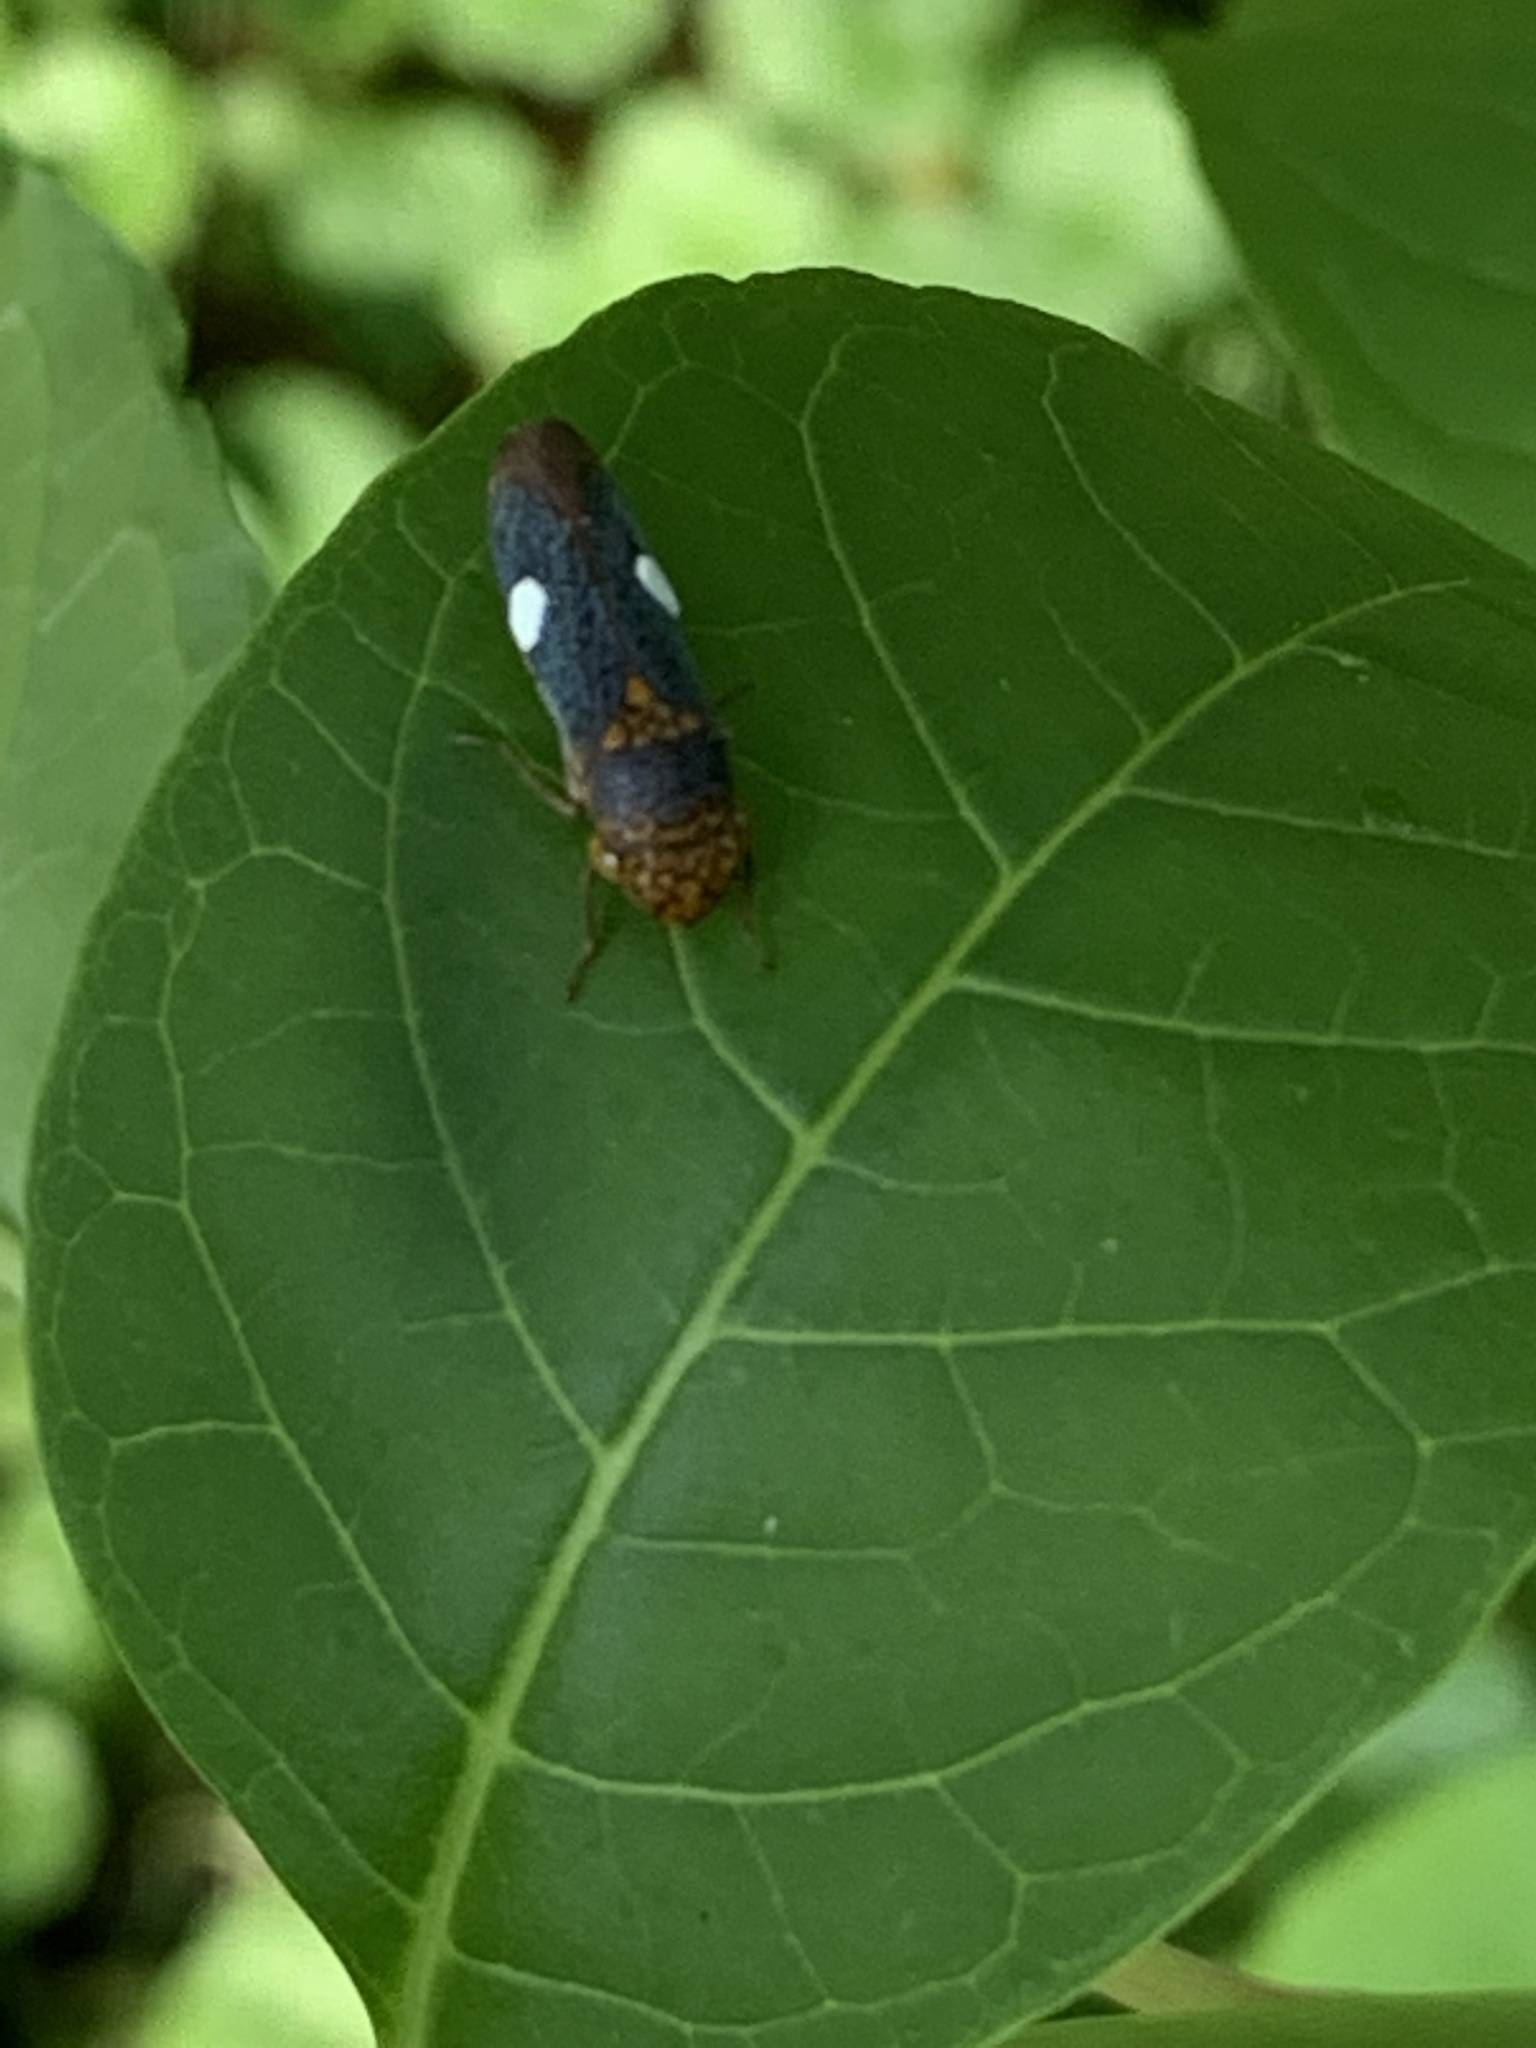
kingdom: Animalia
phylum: Arthropoda
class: Insecta
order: Hemiptera
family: Cicadellidae
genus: Oncometopia
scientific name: Oncometopia orbona
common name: Broad-headed sharpshooter
